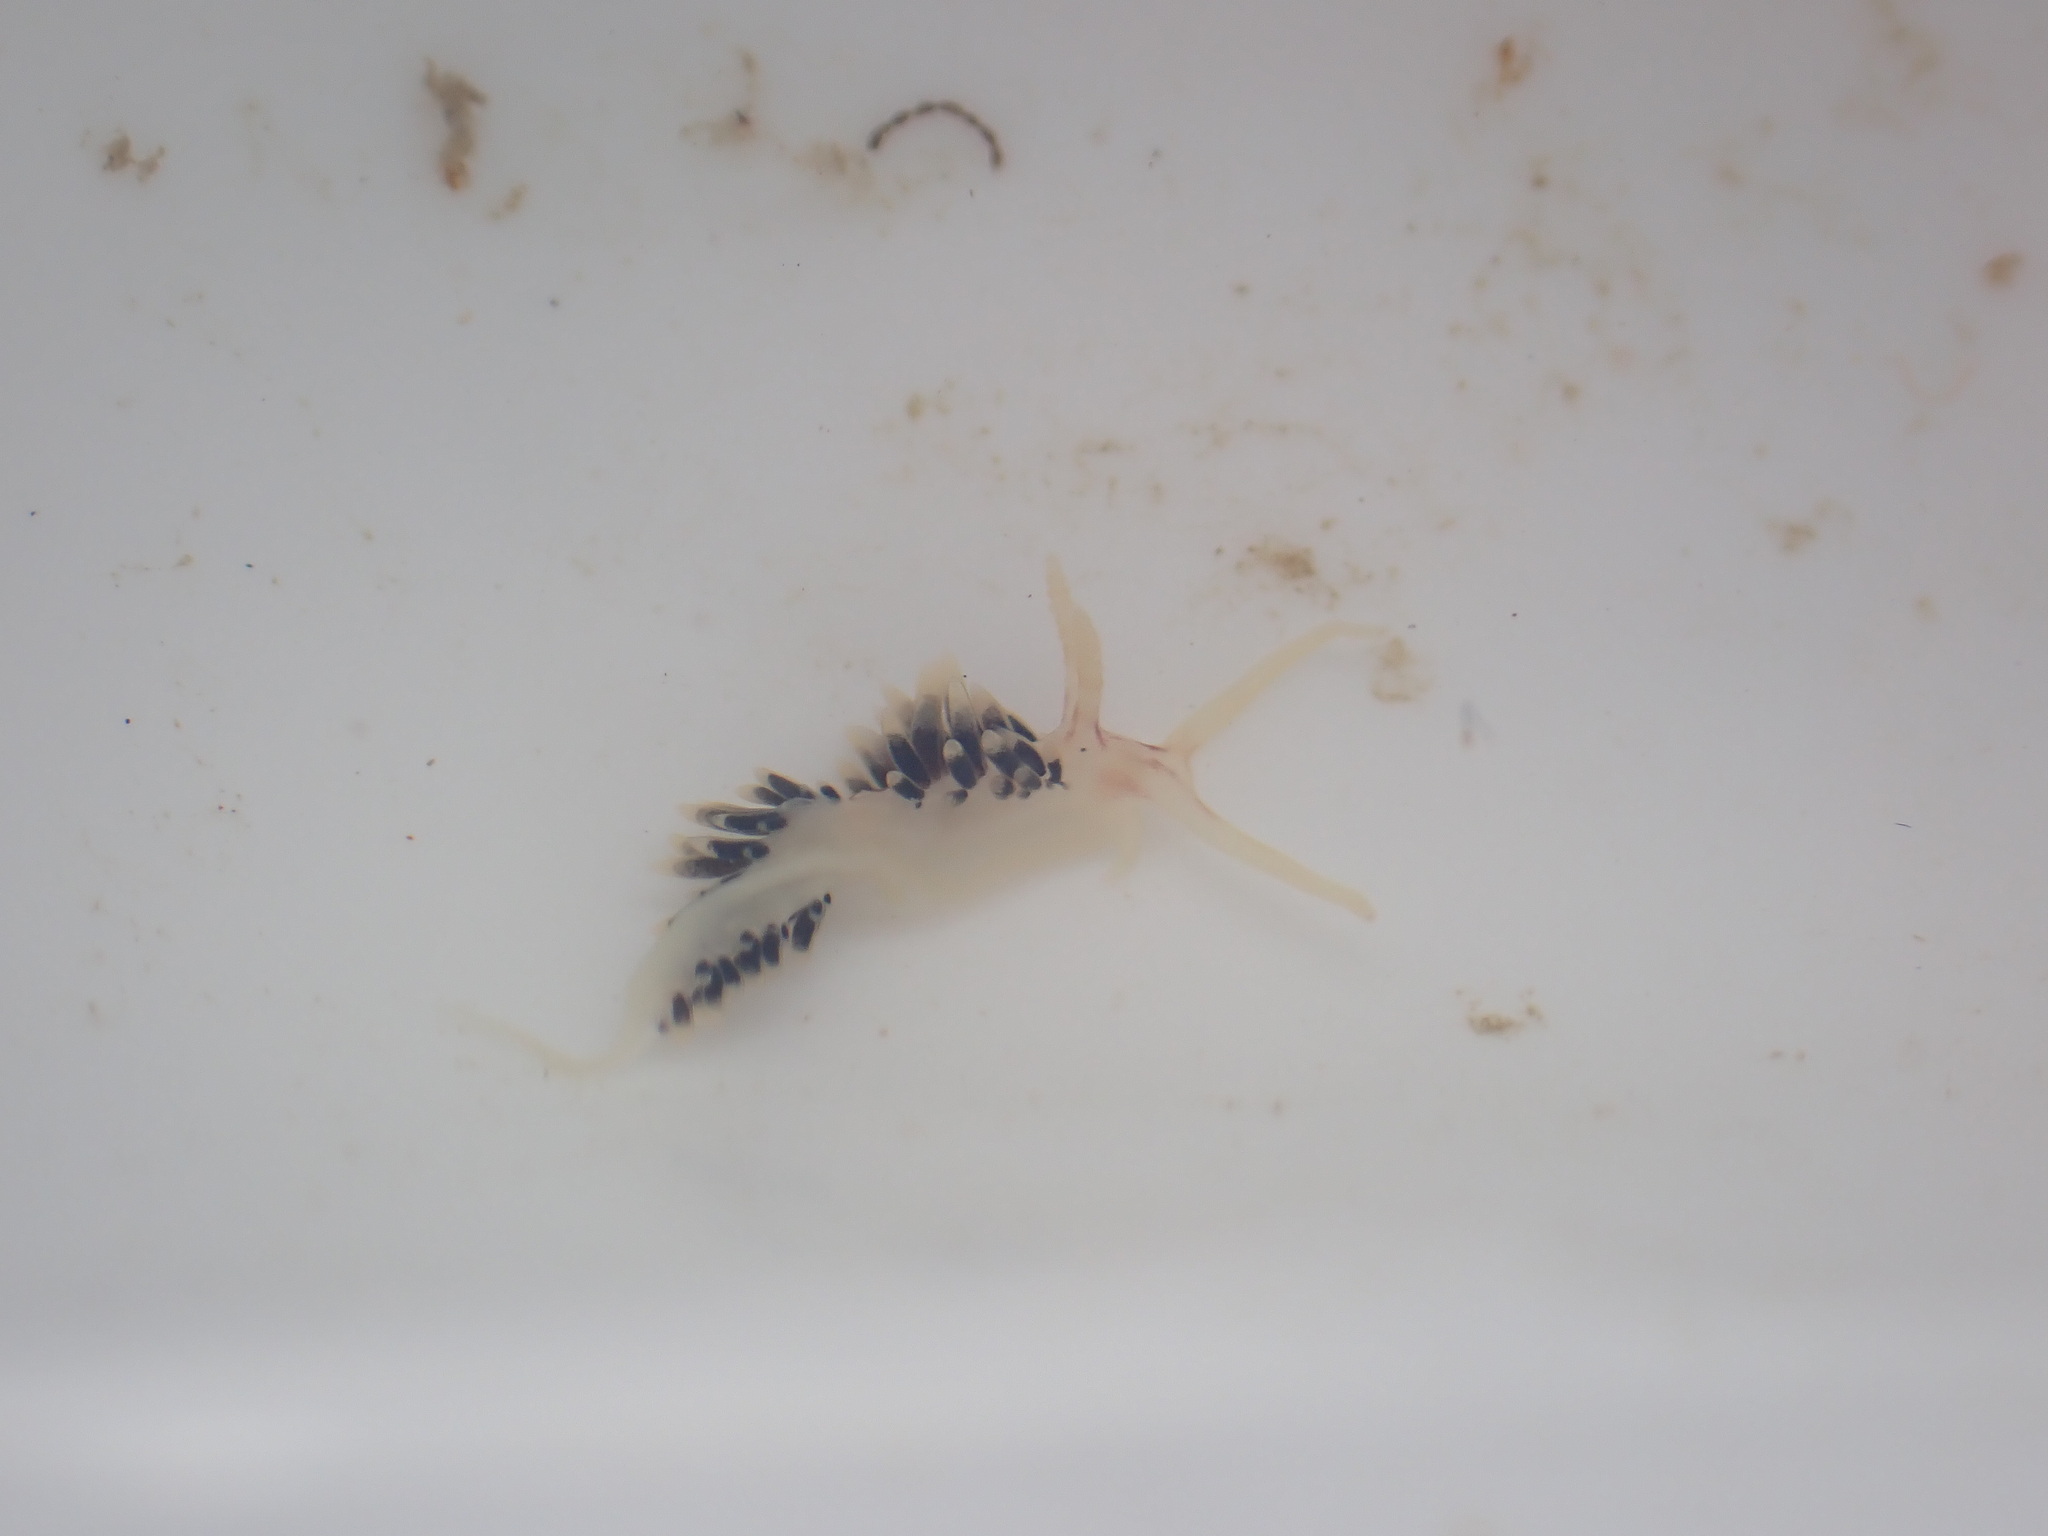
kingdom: Animalia
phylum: Mollusca
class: Gastropoda
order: Nudibranchia
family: Facelinidae
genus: Facelina
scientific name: Facelina newcombi
